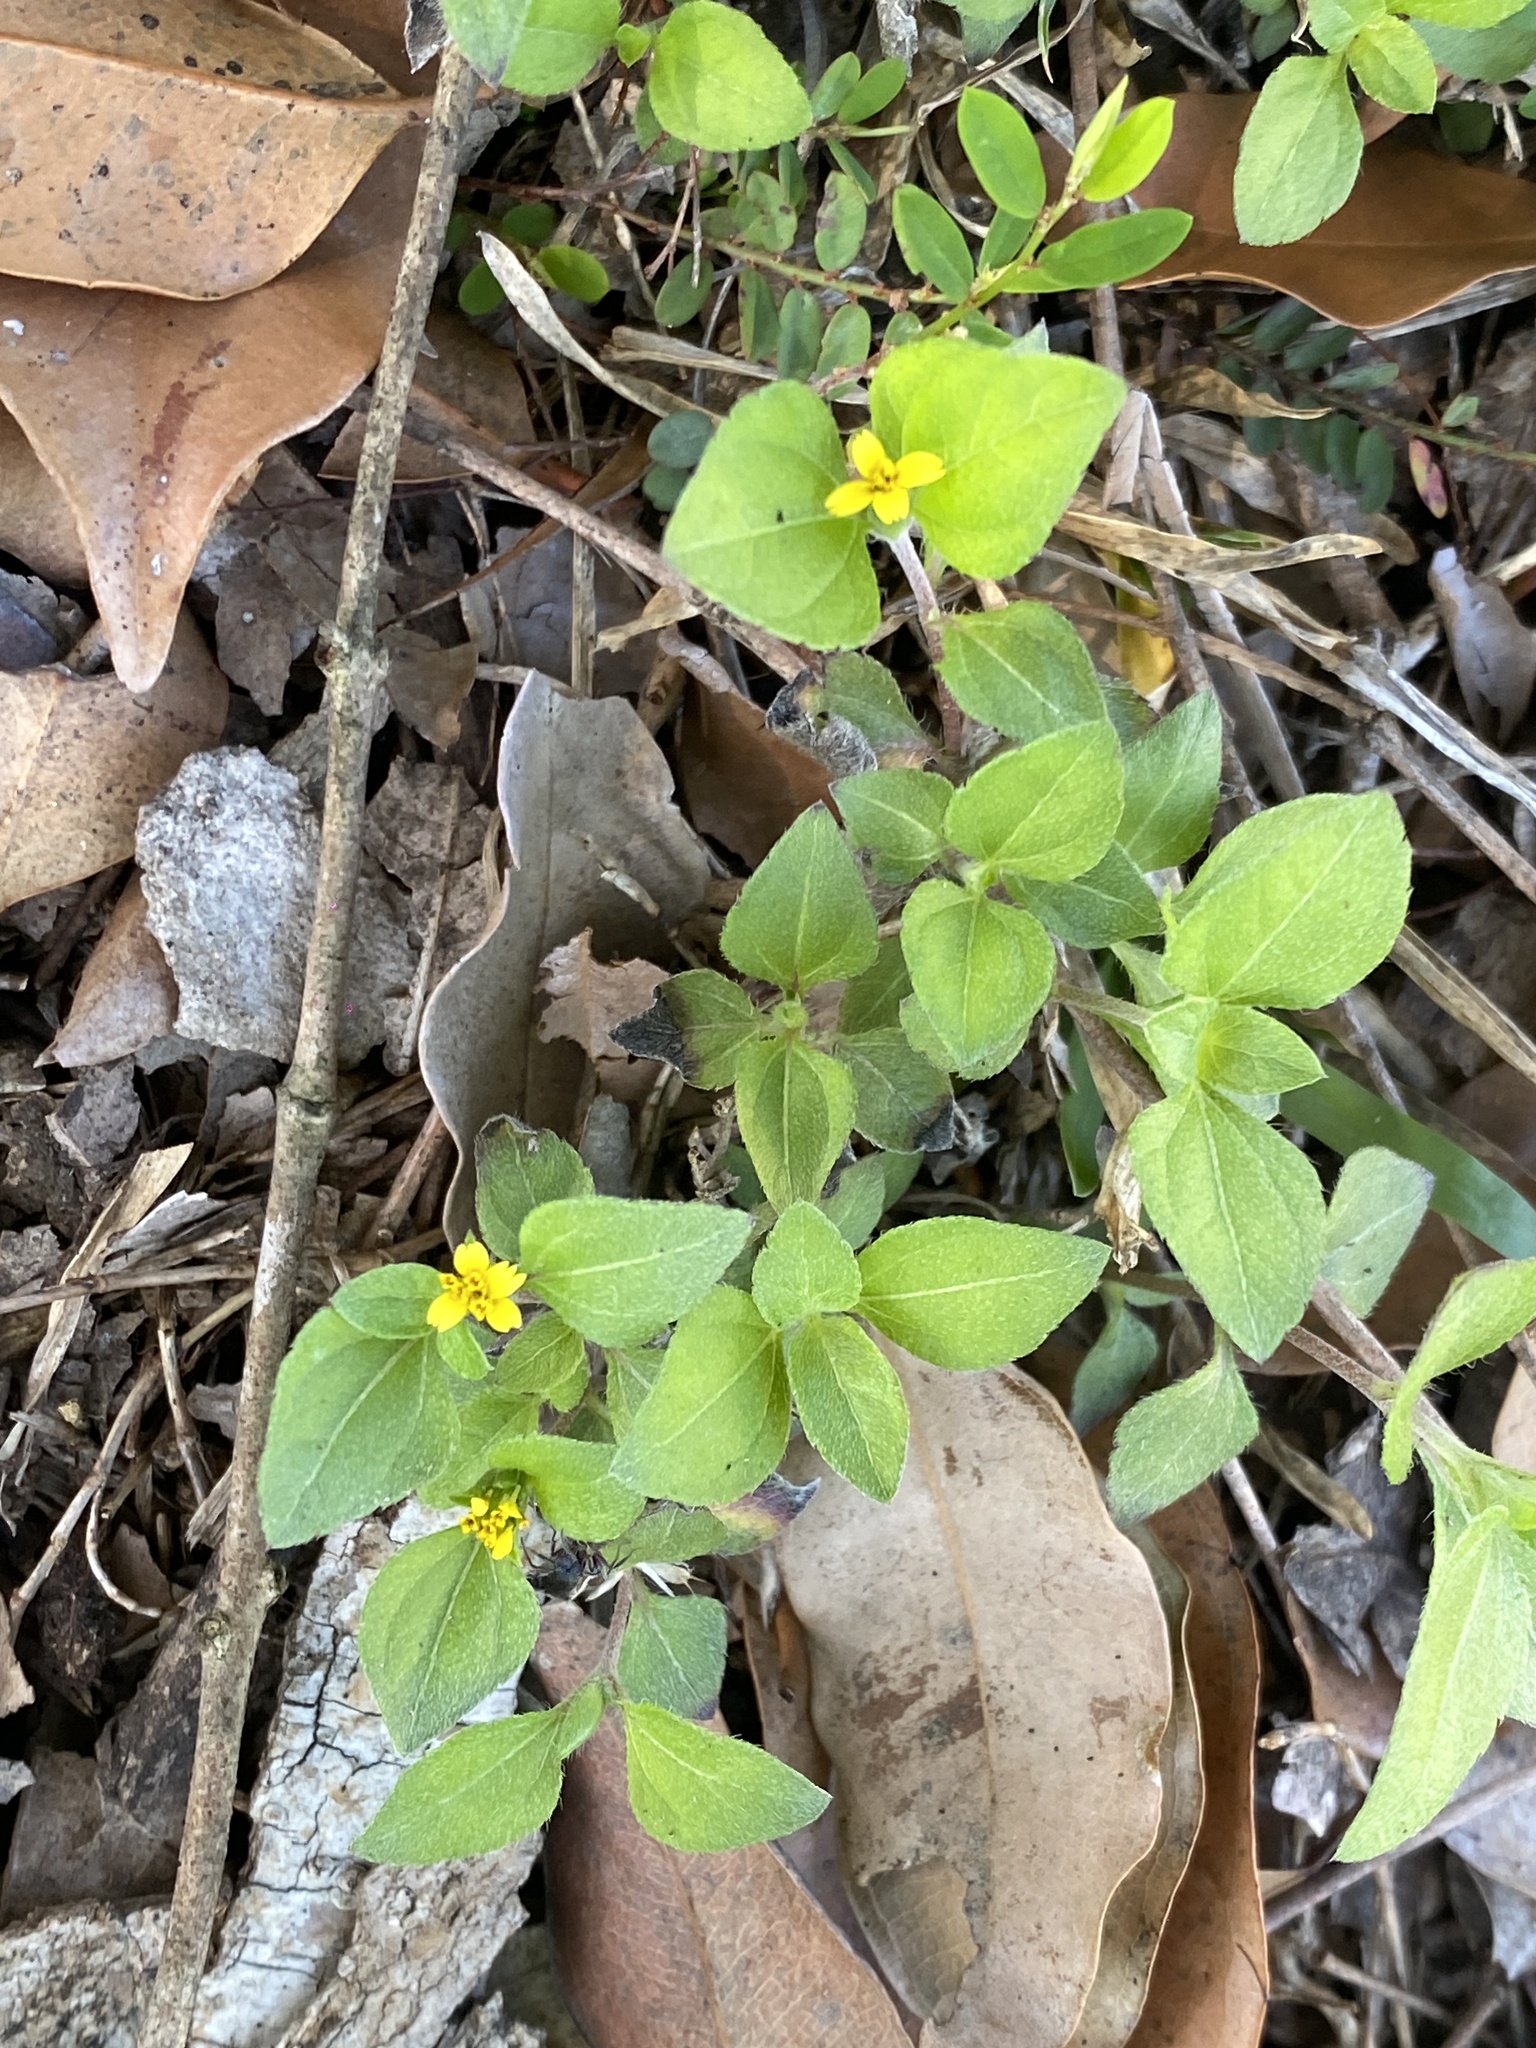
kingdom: Plantae
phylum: Tracheophyta
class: Magnoliopsida
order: Asterales
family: Asteraceae
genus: Calyptocarpus
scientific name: Calyptocarpus vialis
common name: Straggler daisy
